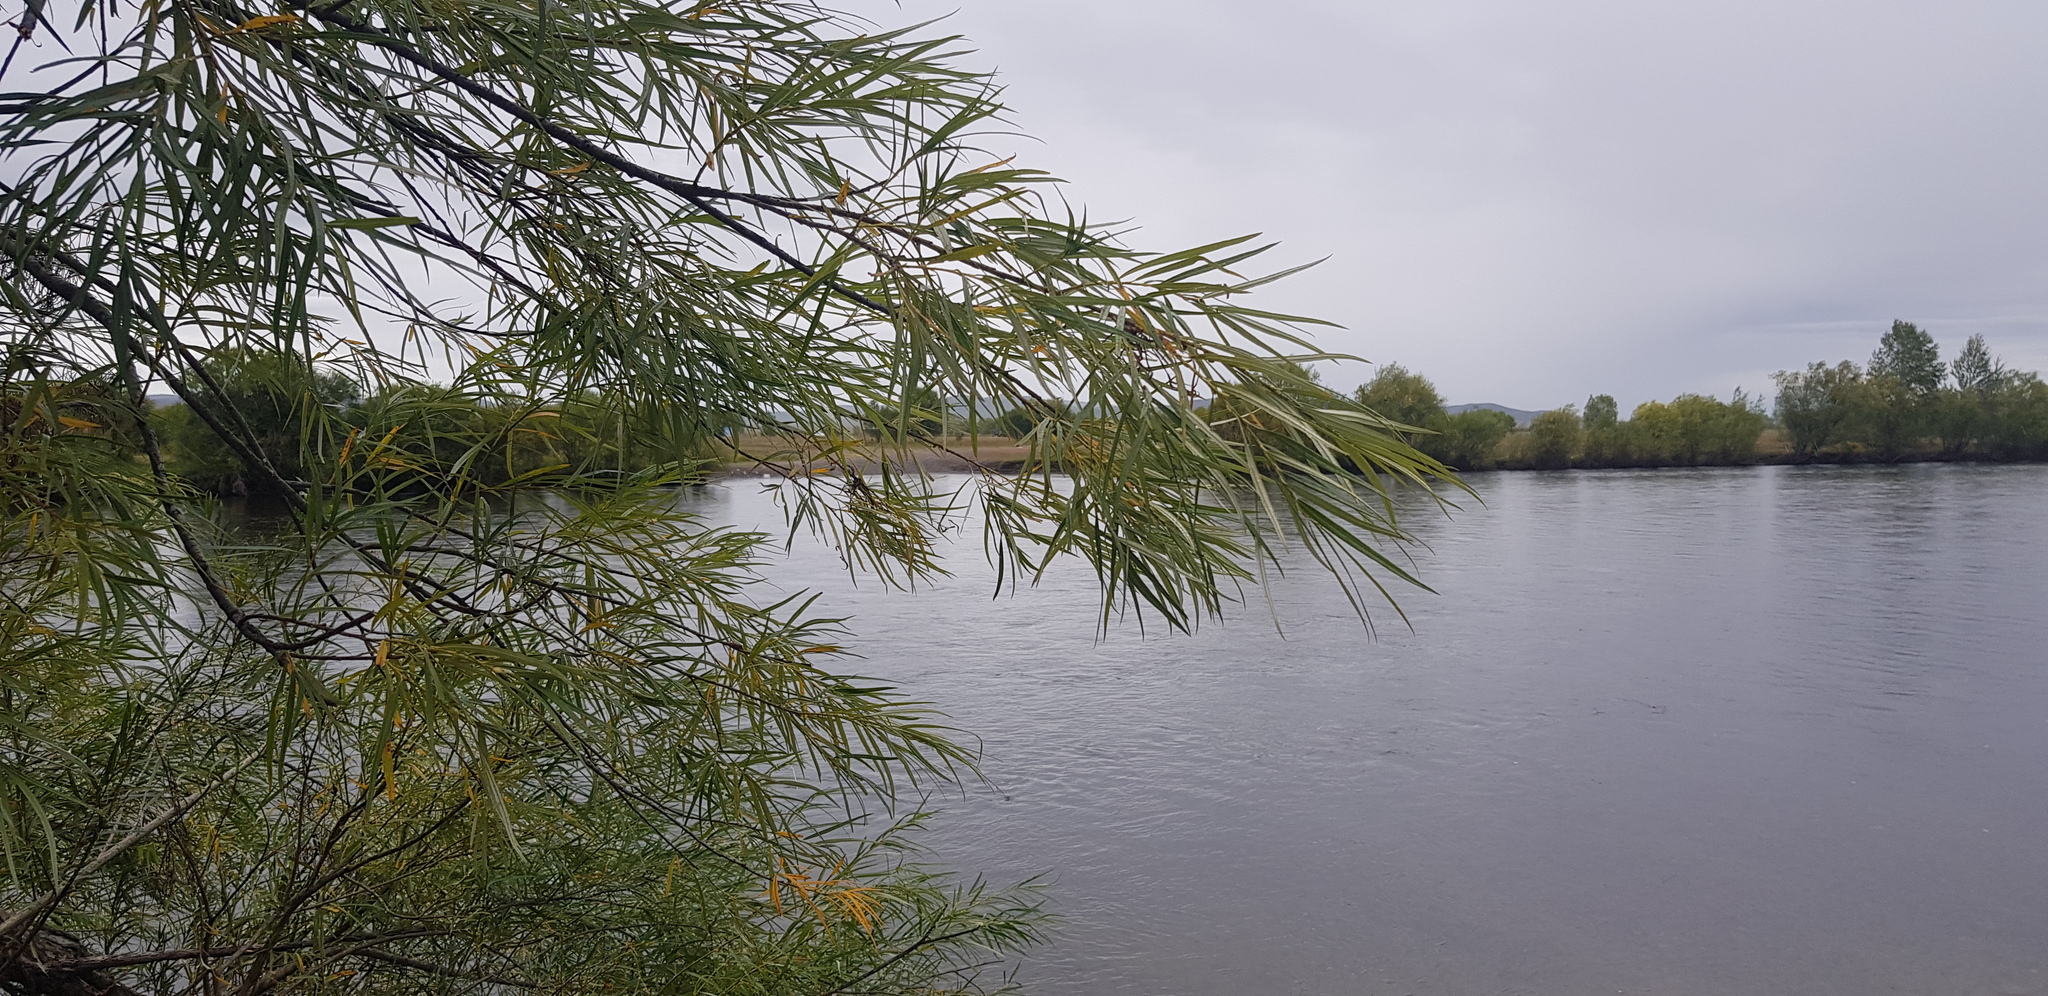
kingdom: Plantae
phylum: Tracheophyta
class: Magnoliopsida
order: Malpighiales
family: Salicaceae
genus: Salix
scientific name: Salix viminalis
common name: Osier
